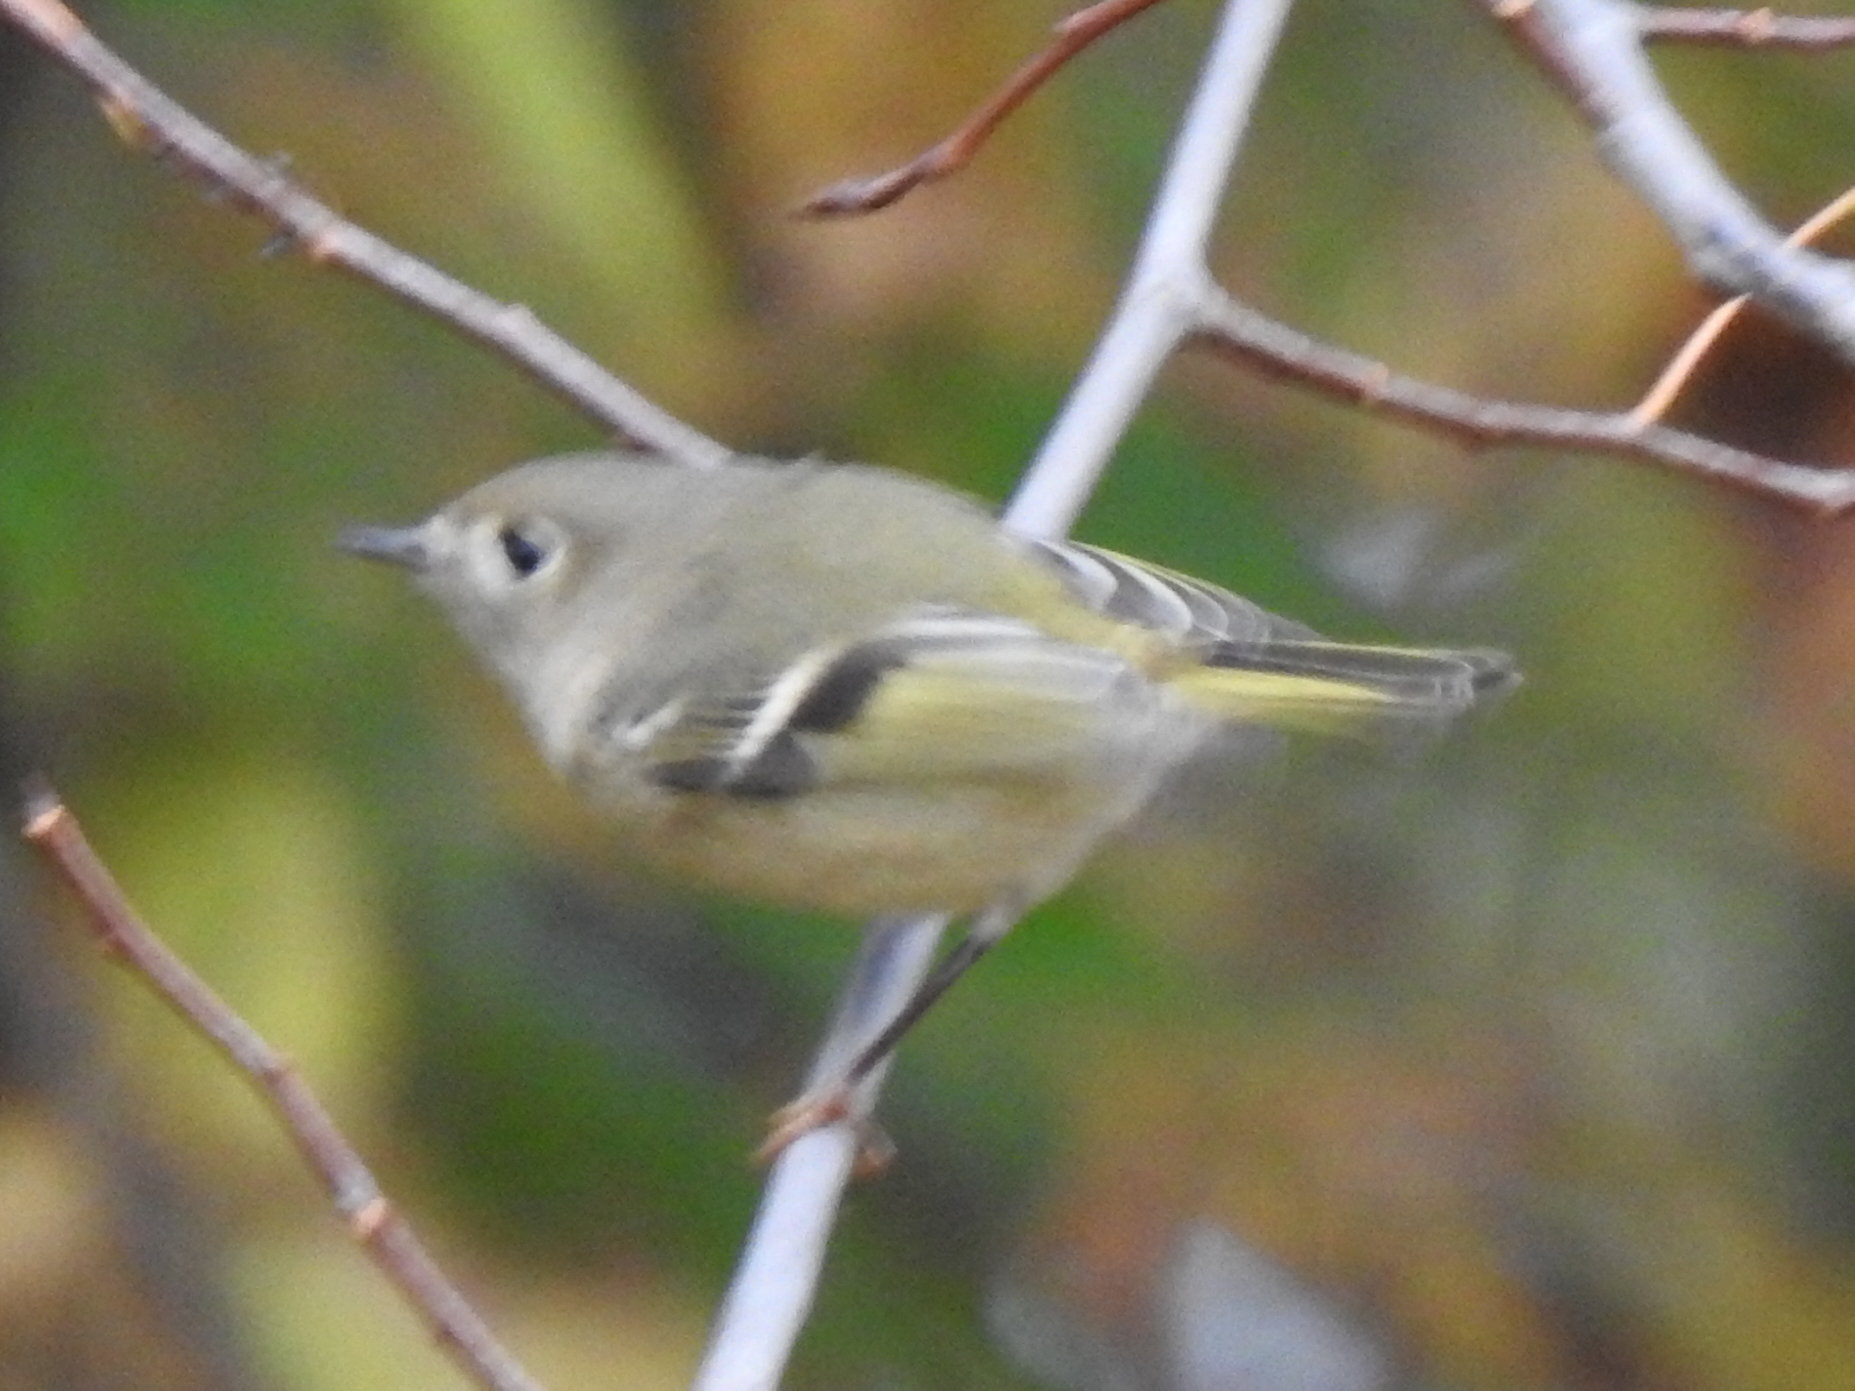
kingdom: Animalia
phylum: Chordata
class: Aves
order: Passeriformes
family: Regulidae
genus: Regulus
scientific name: Regulus calendula
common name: Ruby-crowned kinglet
